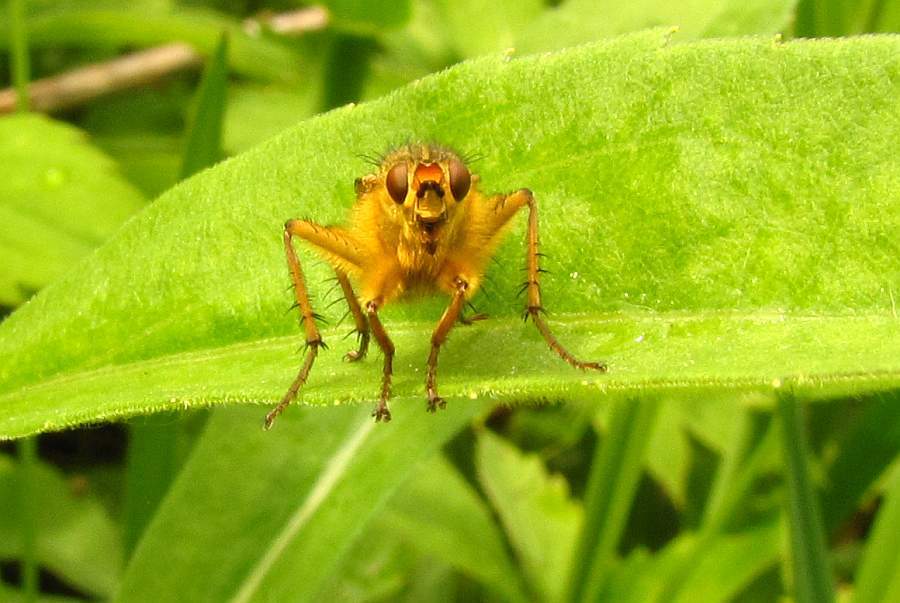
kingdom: Animalia
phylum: Arthropoda
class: Insecta
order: Diptera
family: Scathophagidae
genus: Scathophaga
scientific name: Scathophaga stercoraria
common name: Yellow dung fly
